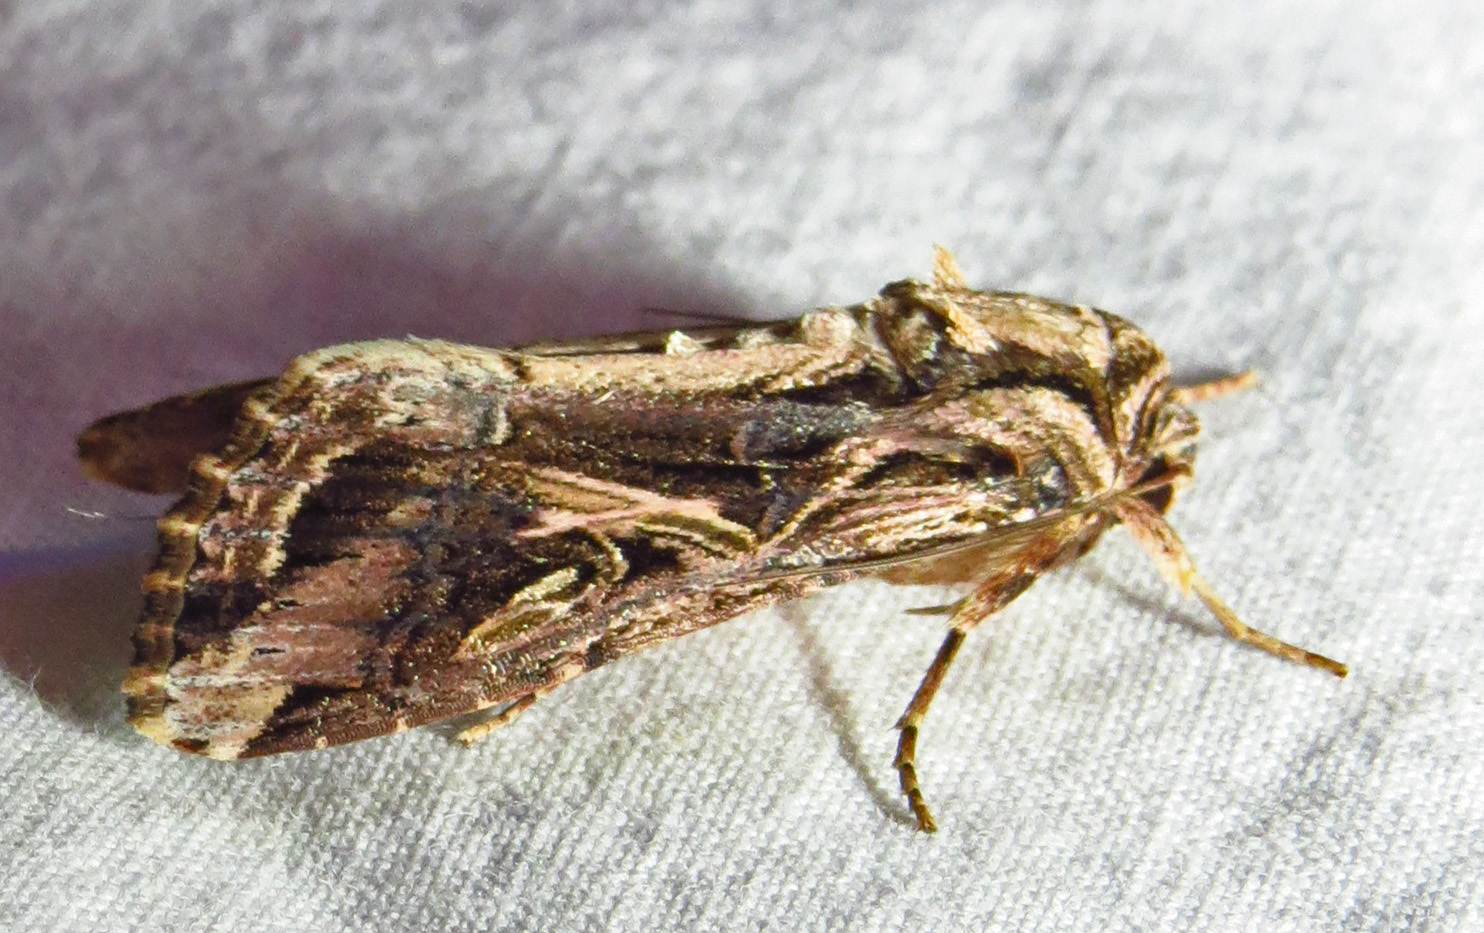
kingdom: Animalia
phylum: Arthropoda
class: Insecta
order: Lepidoptera
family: Noctuidae
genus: Spodoptera
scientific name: Spodoptera ornithogalli
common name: Yellow-striped armyworm
